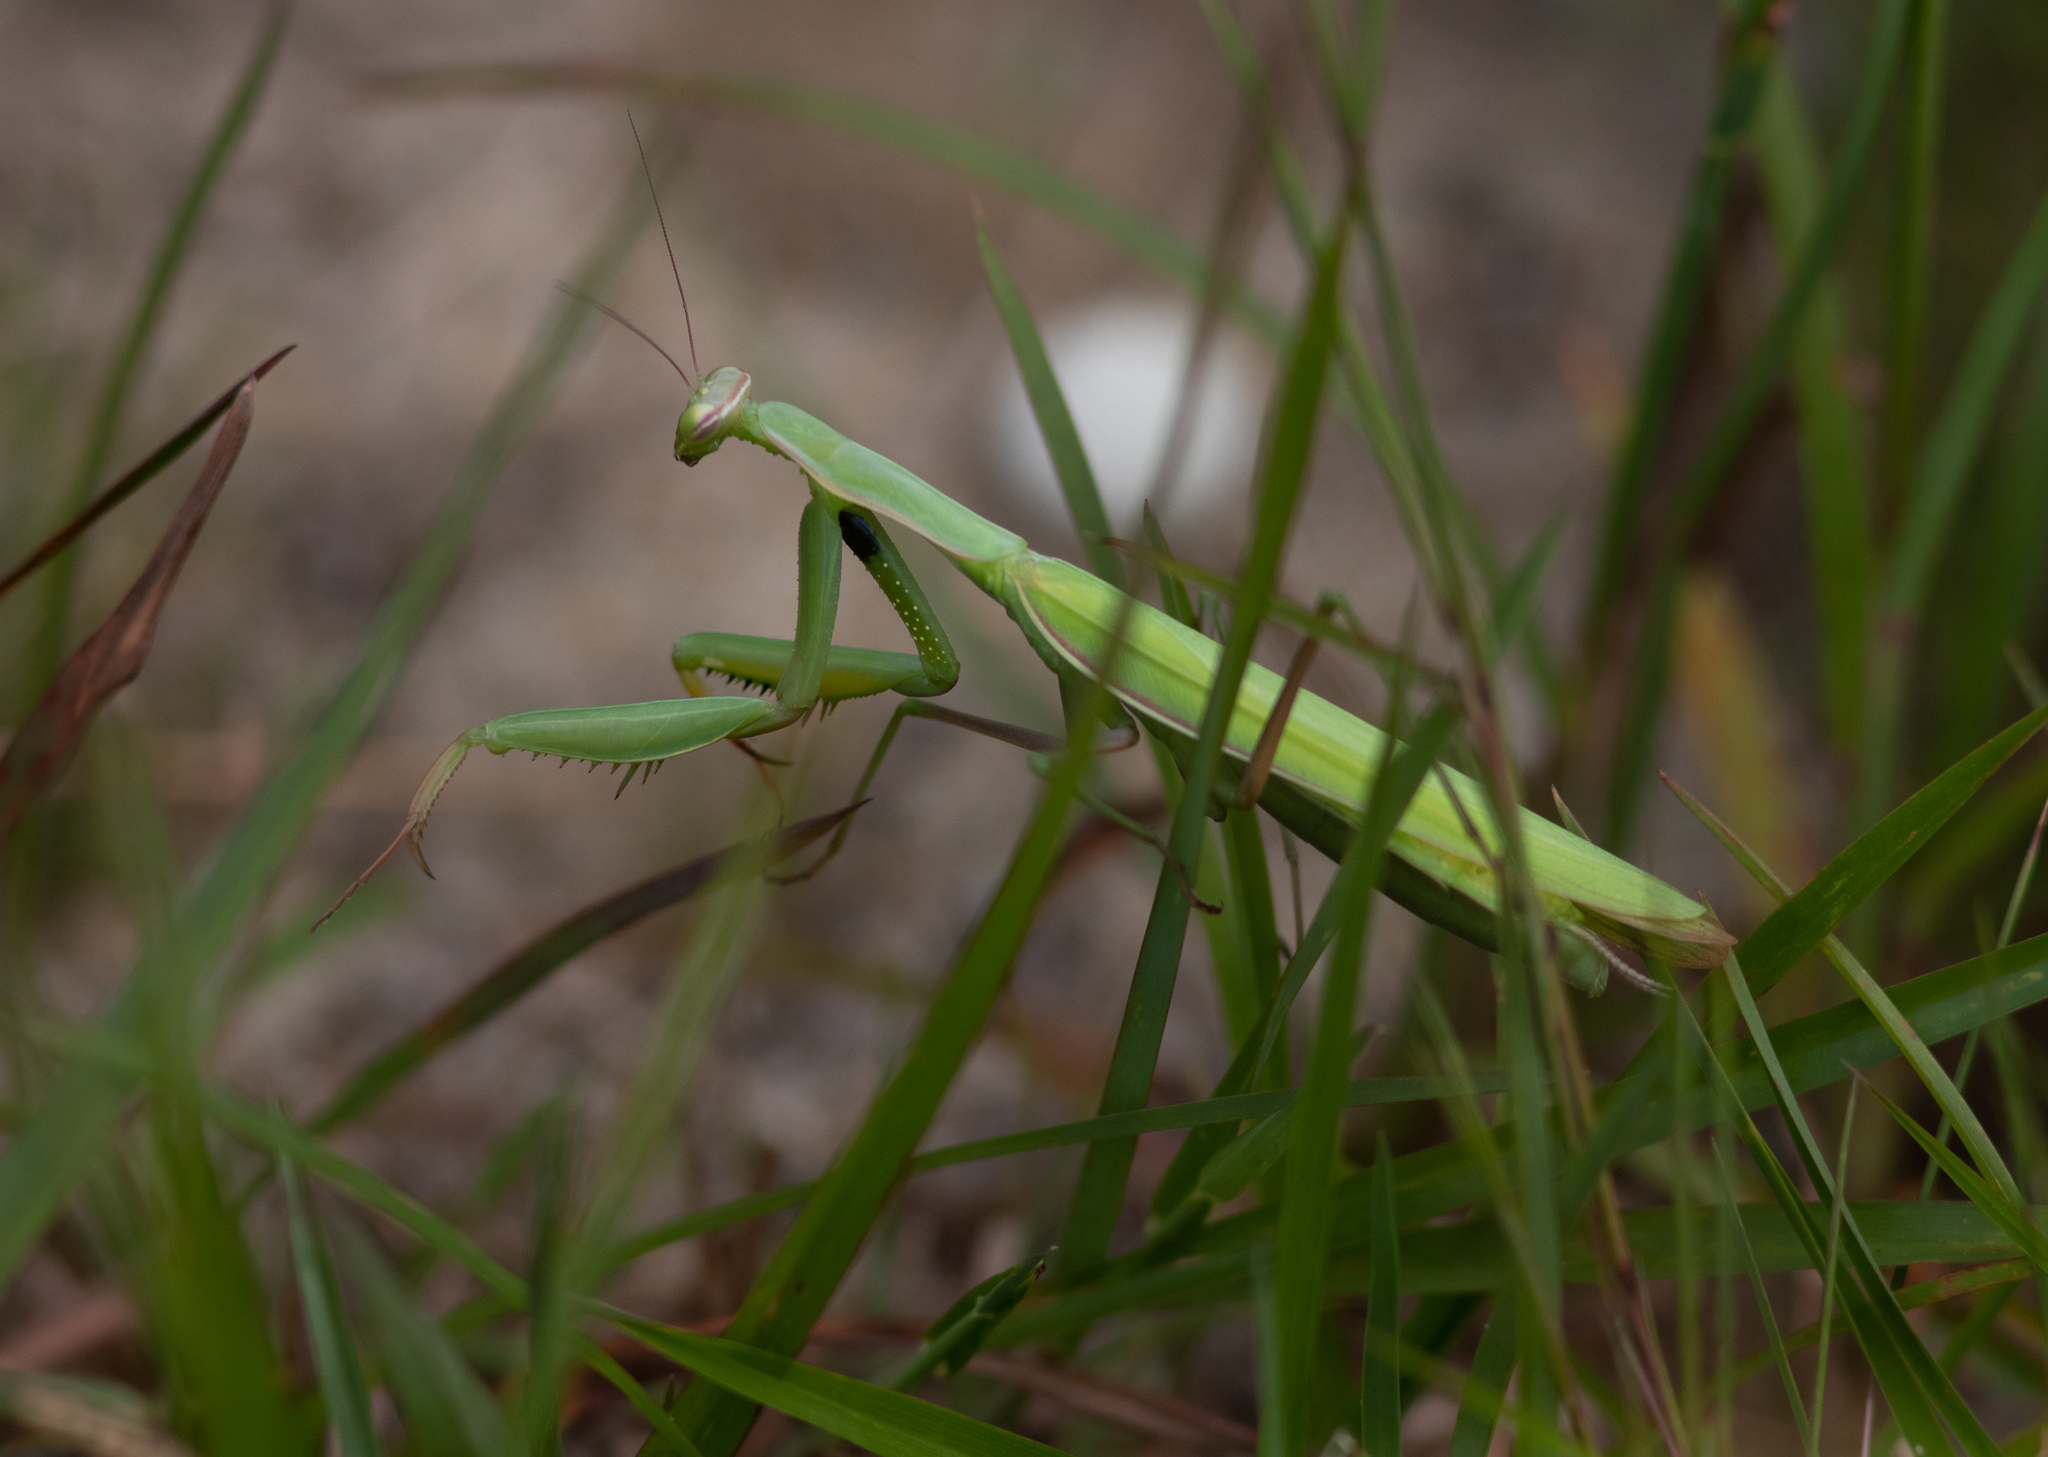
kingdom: Animalia
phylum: Arthropoda
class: Insecta
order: Mantodea
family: Mantidae
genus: Mantis
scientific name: Mantis religiosa
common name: Praying mantis
